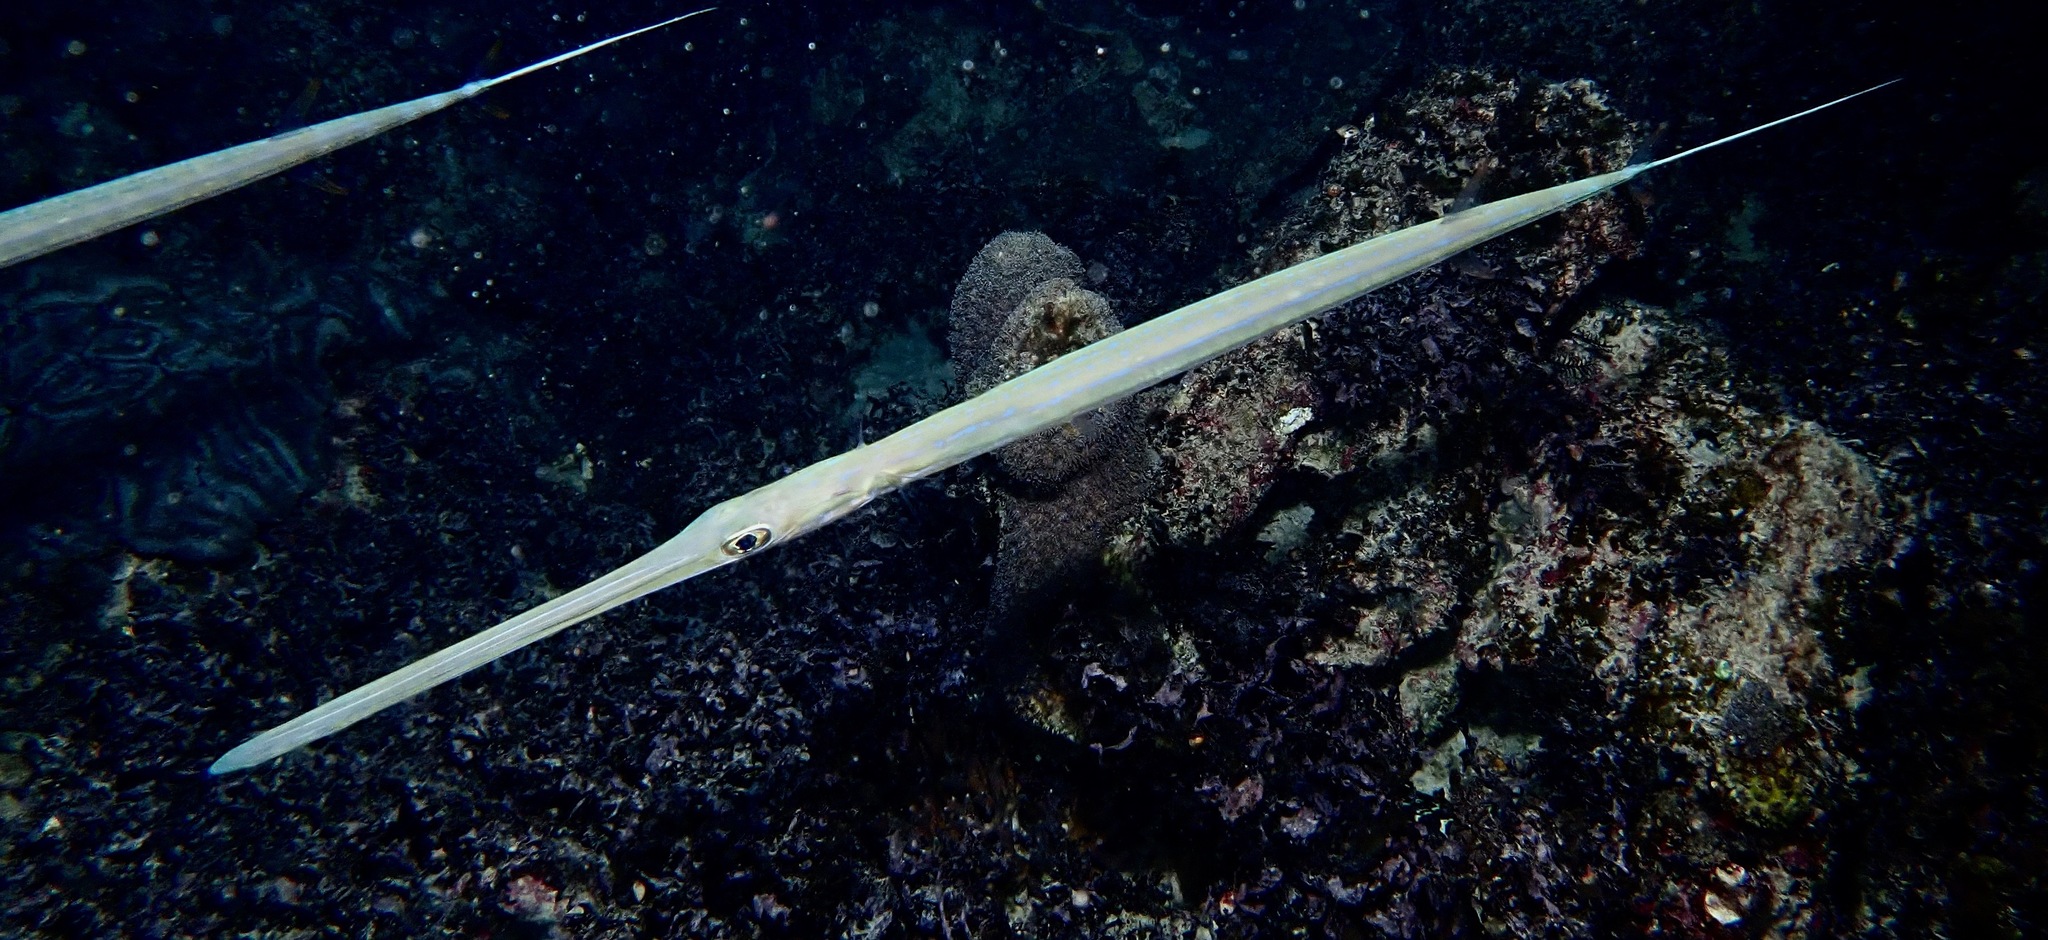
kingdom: Animalia
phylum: Chordata
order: Syngnathiformes
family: Fistulariidae
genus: Fistularia
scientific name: Fistularia commersonii
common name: Bluespotted cornetfish
